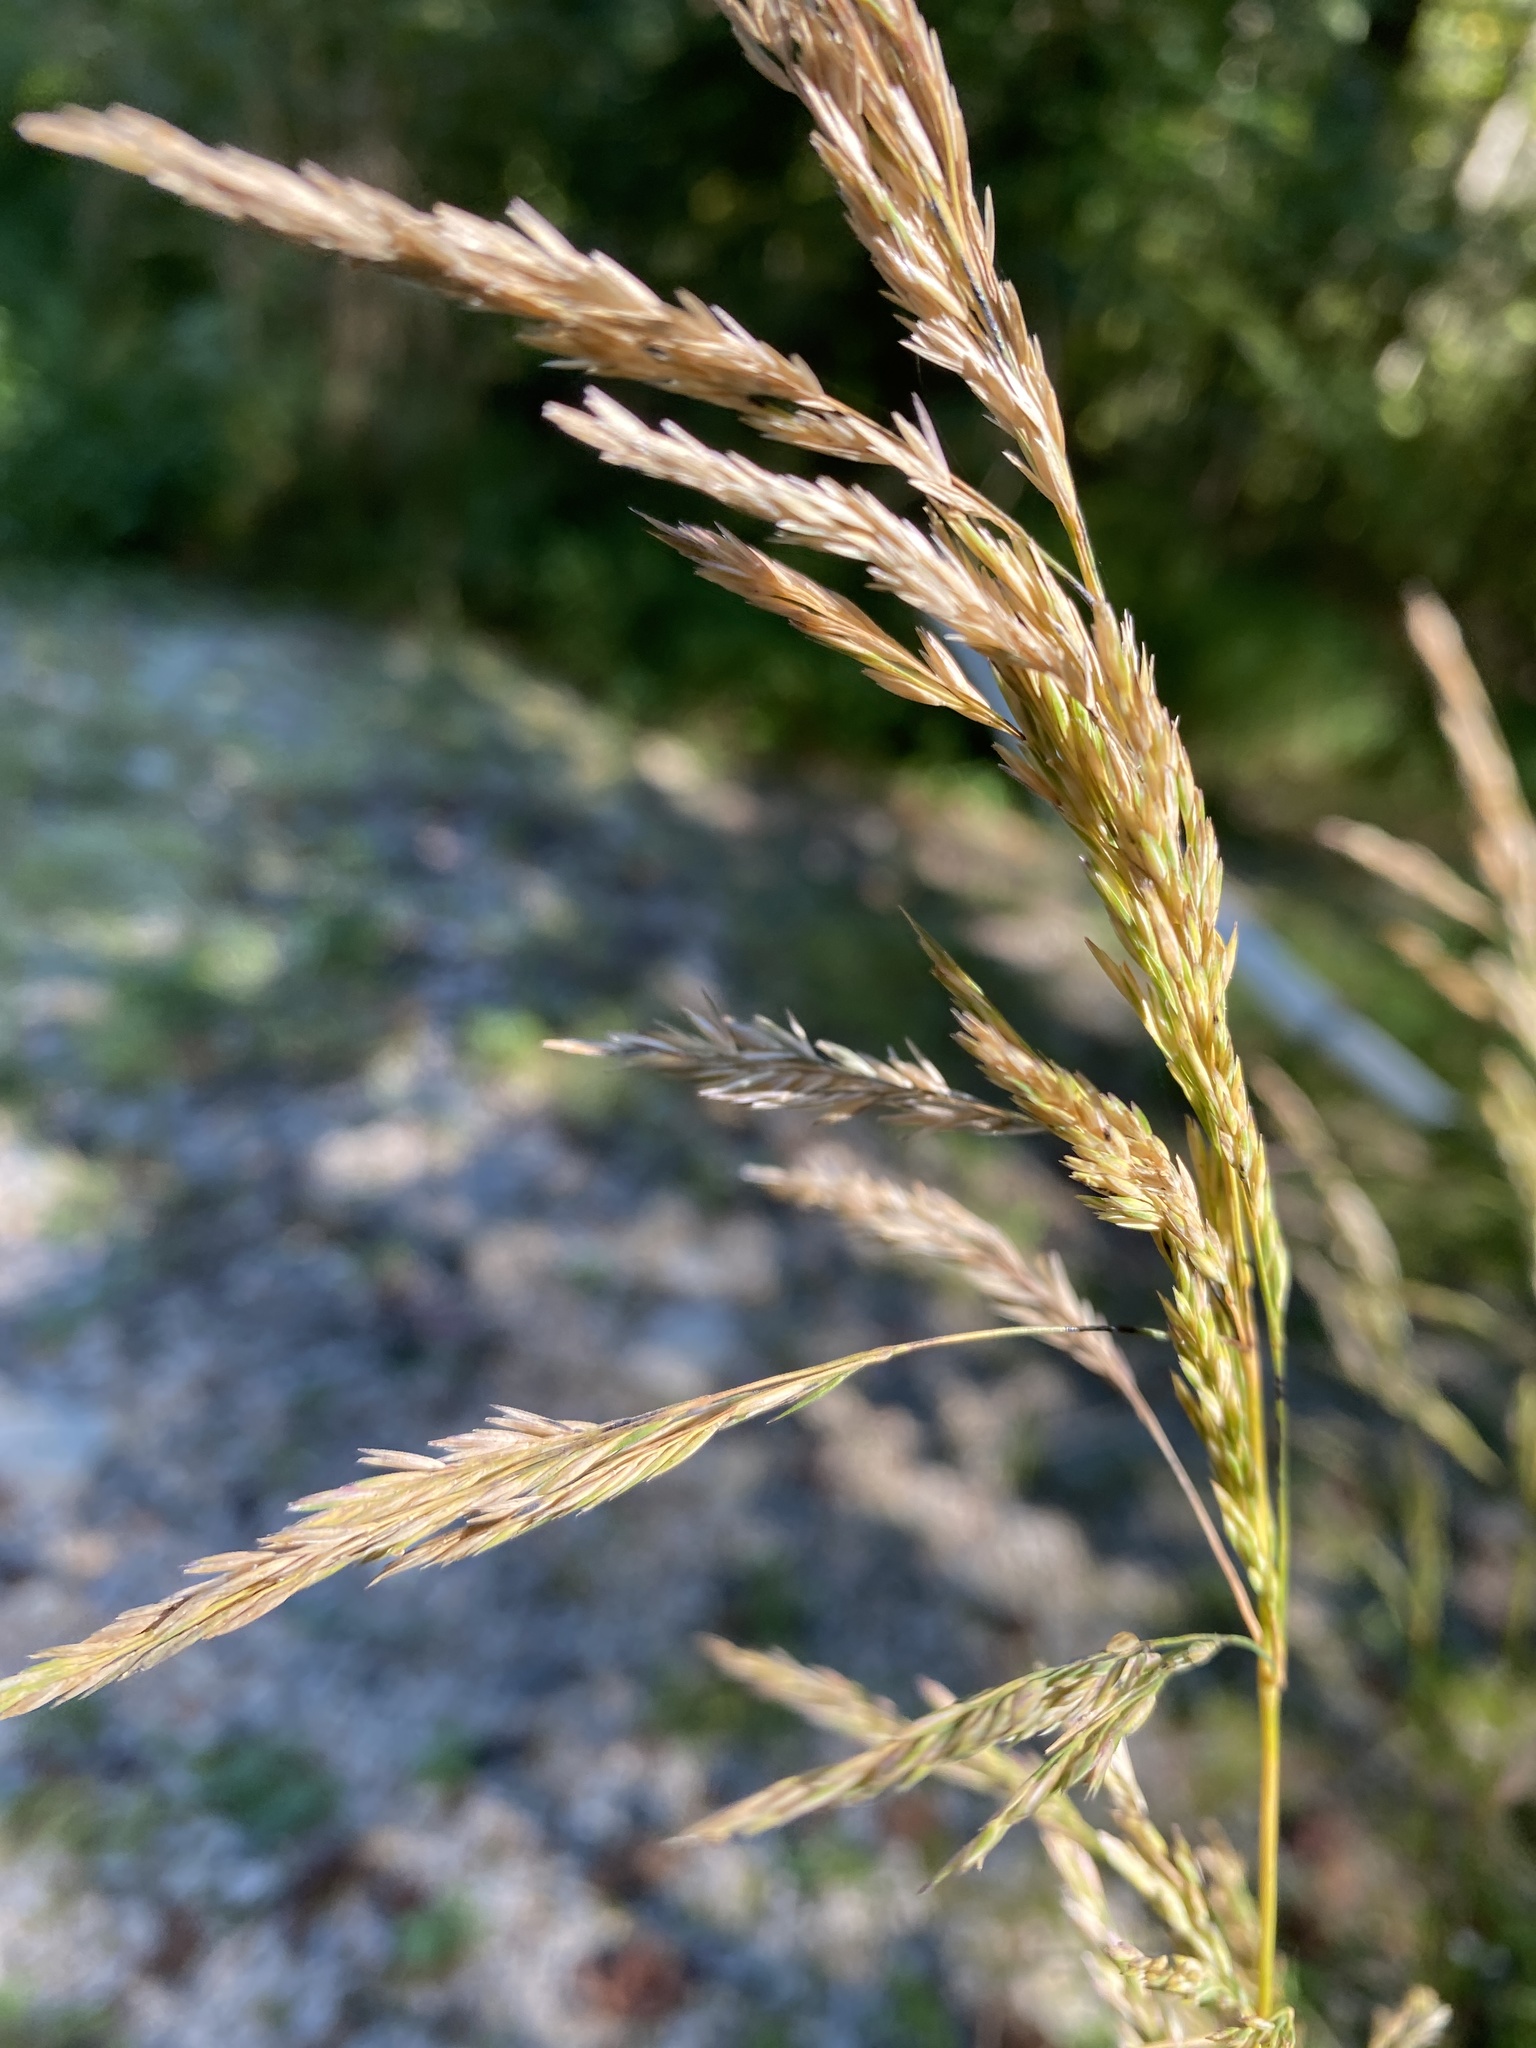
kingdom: Plantae
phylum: Tracheophyta
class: Liliopsida
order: Poales
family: Poaceae
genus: Cinna
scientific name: Cinna arundinacea
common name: Stout woodreed
